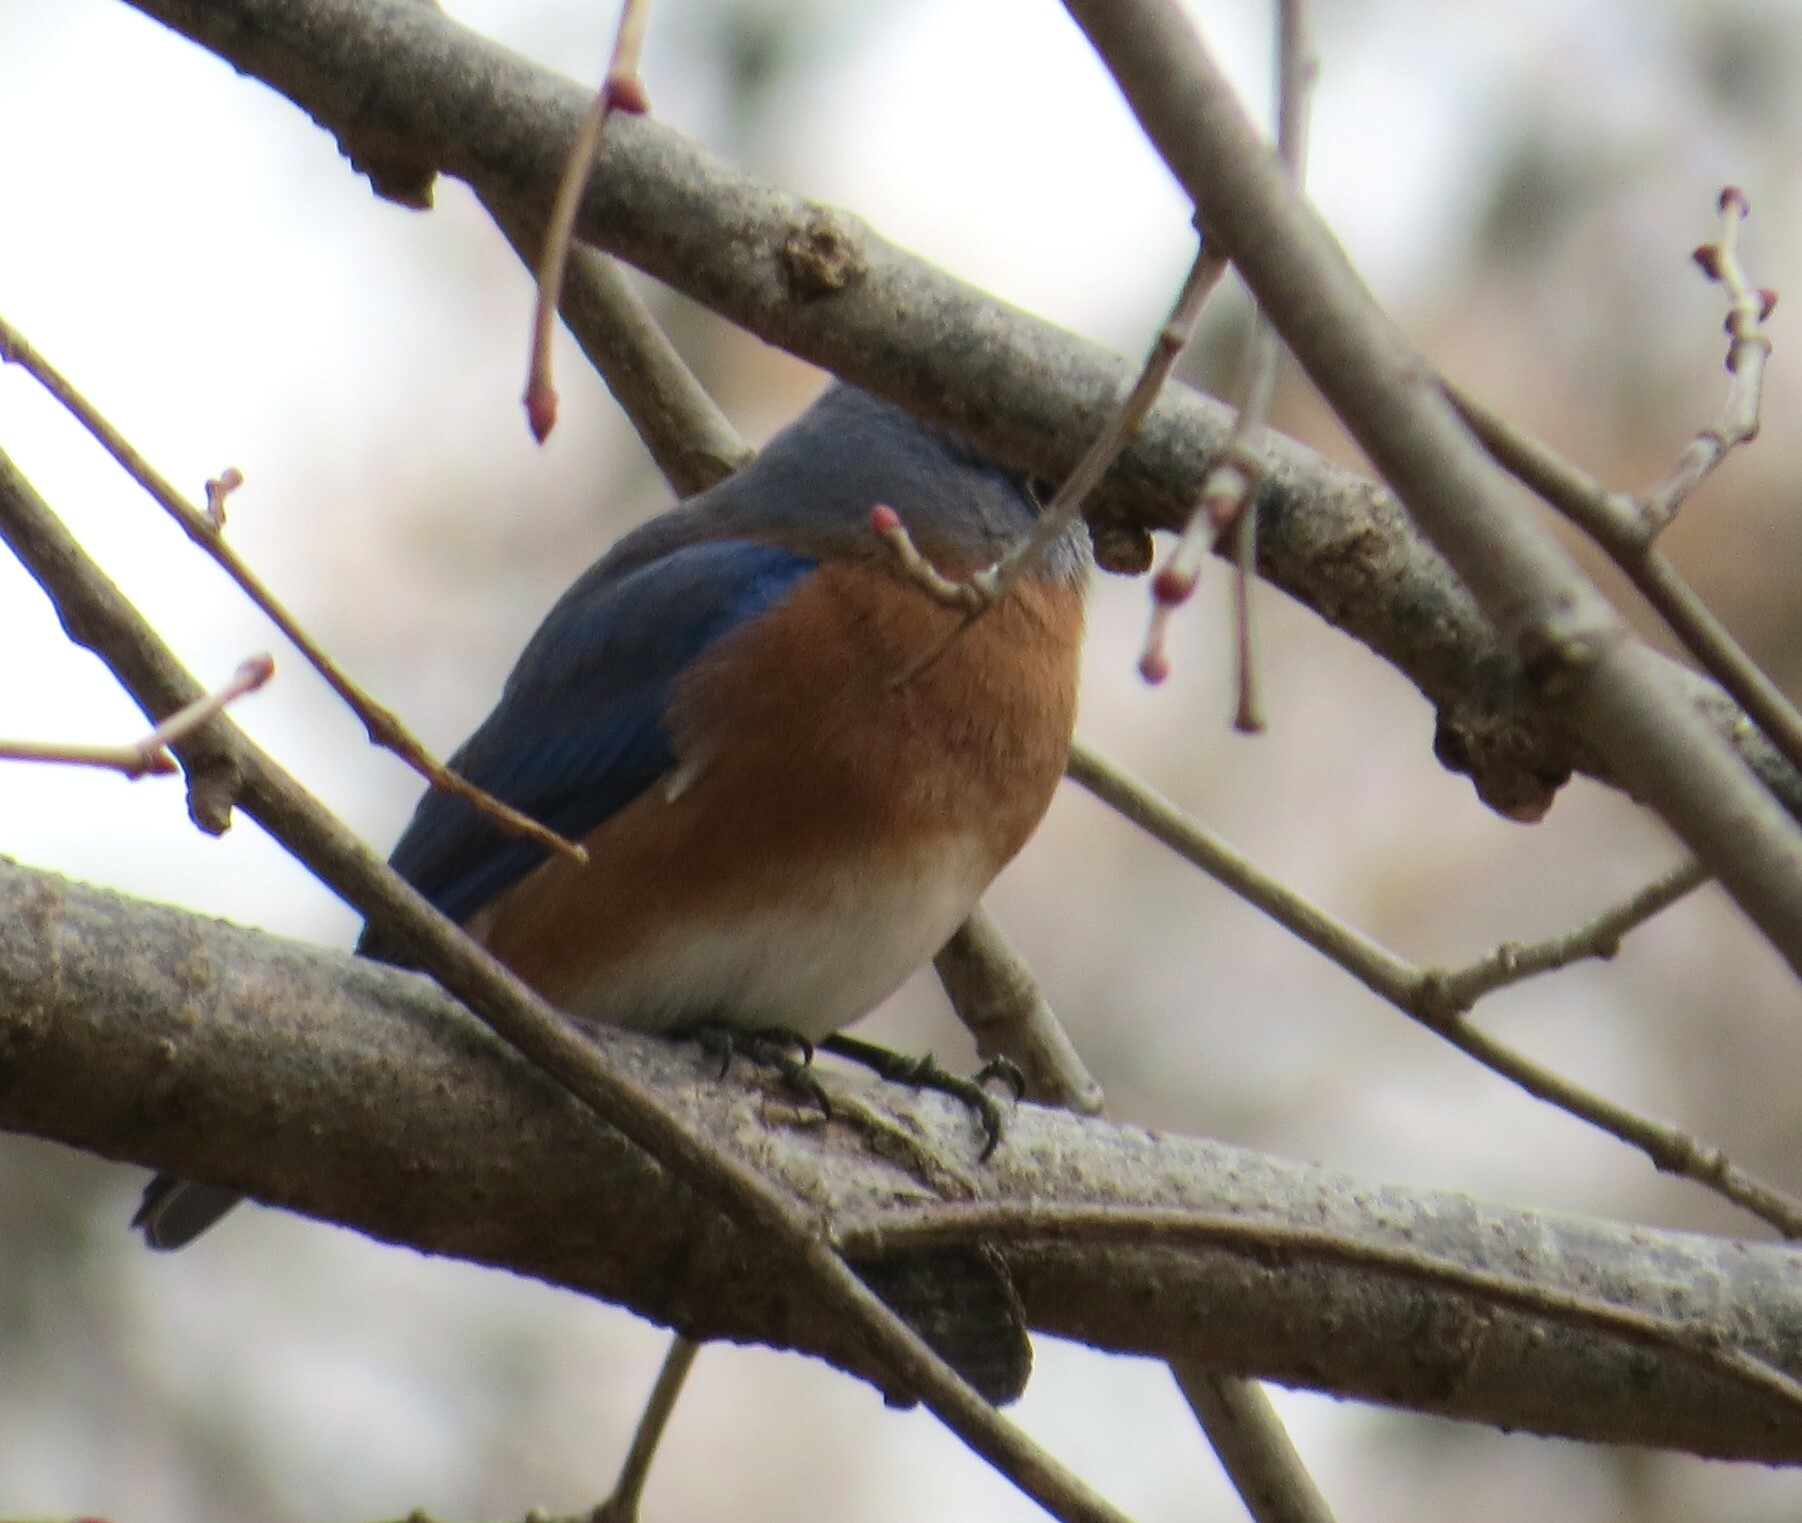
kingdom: Animalia
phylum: Chordata
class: Aves
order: Passeriformes
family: Turdidae
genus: Sialia
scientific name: Sialia sialis
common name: Eastern bluebird
